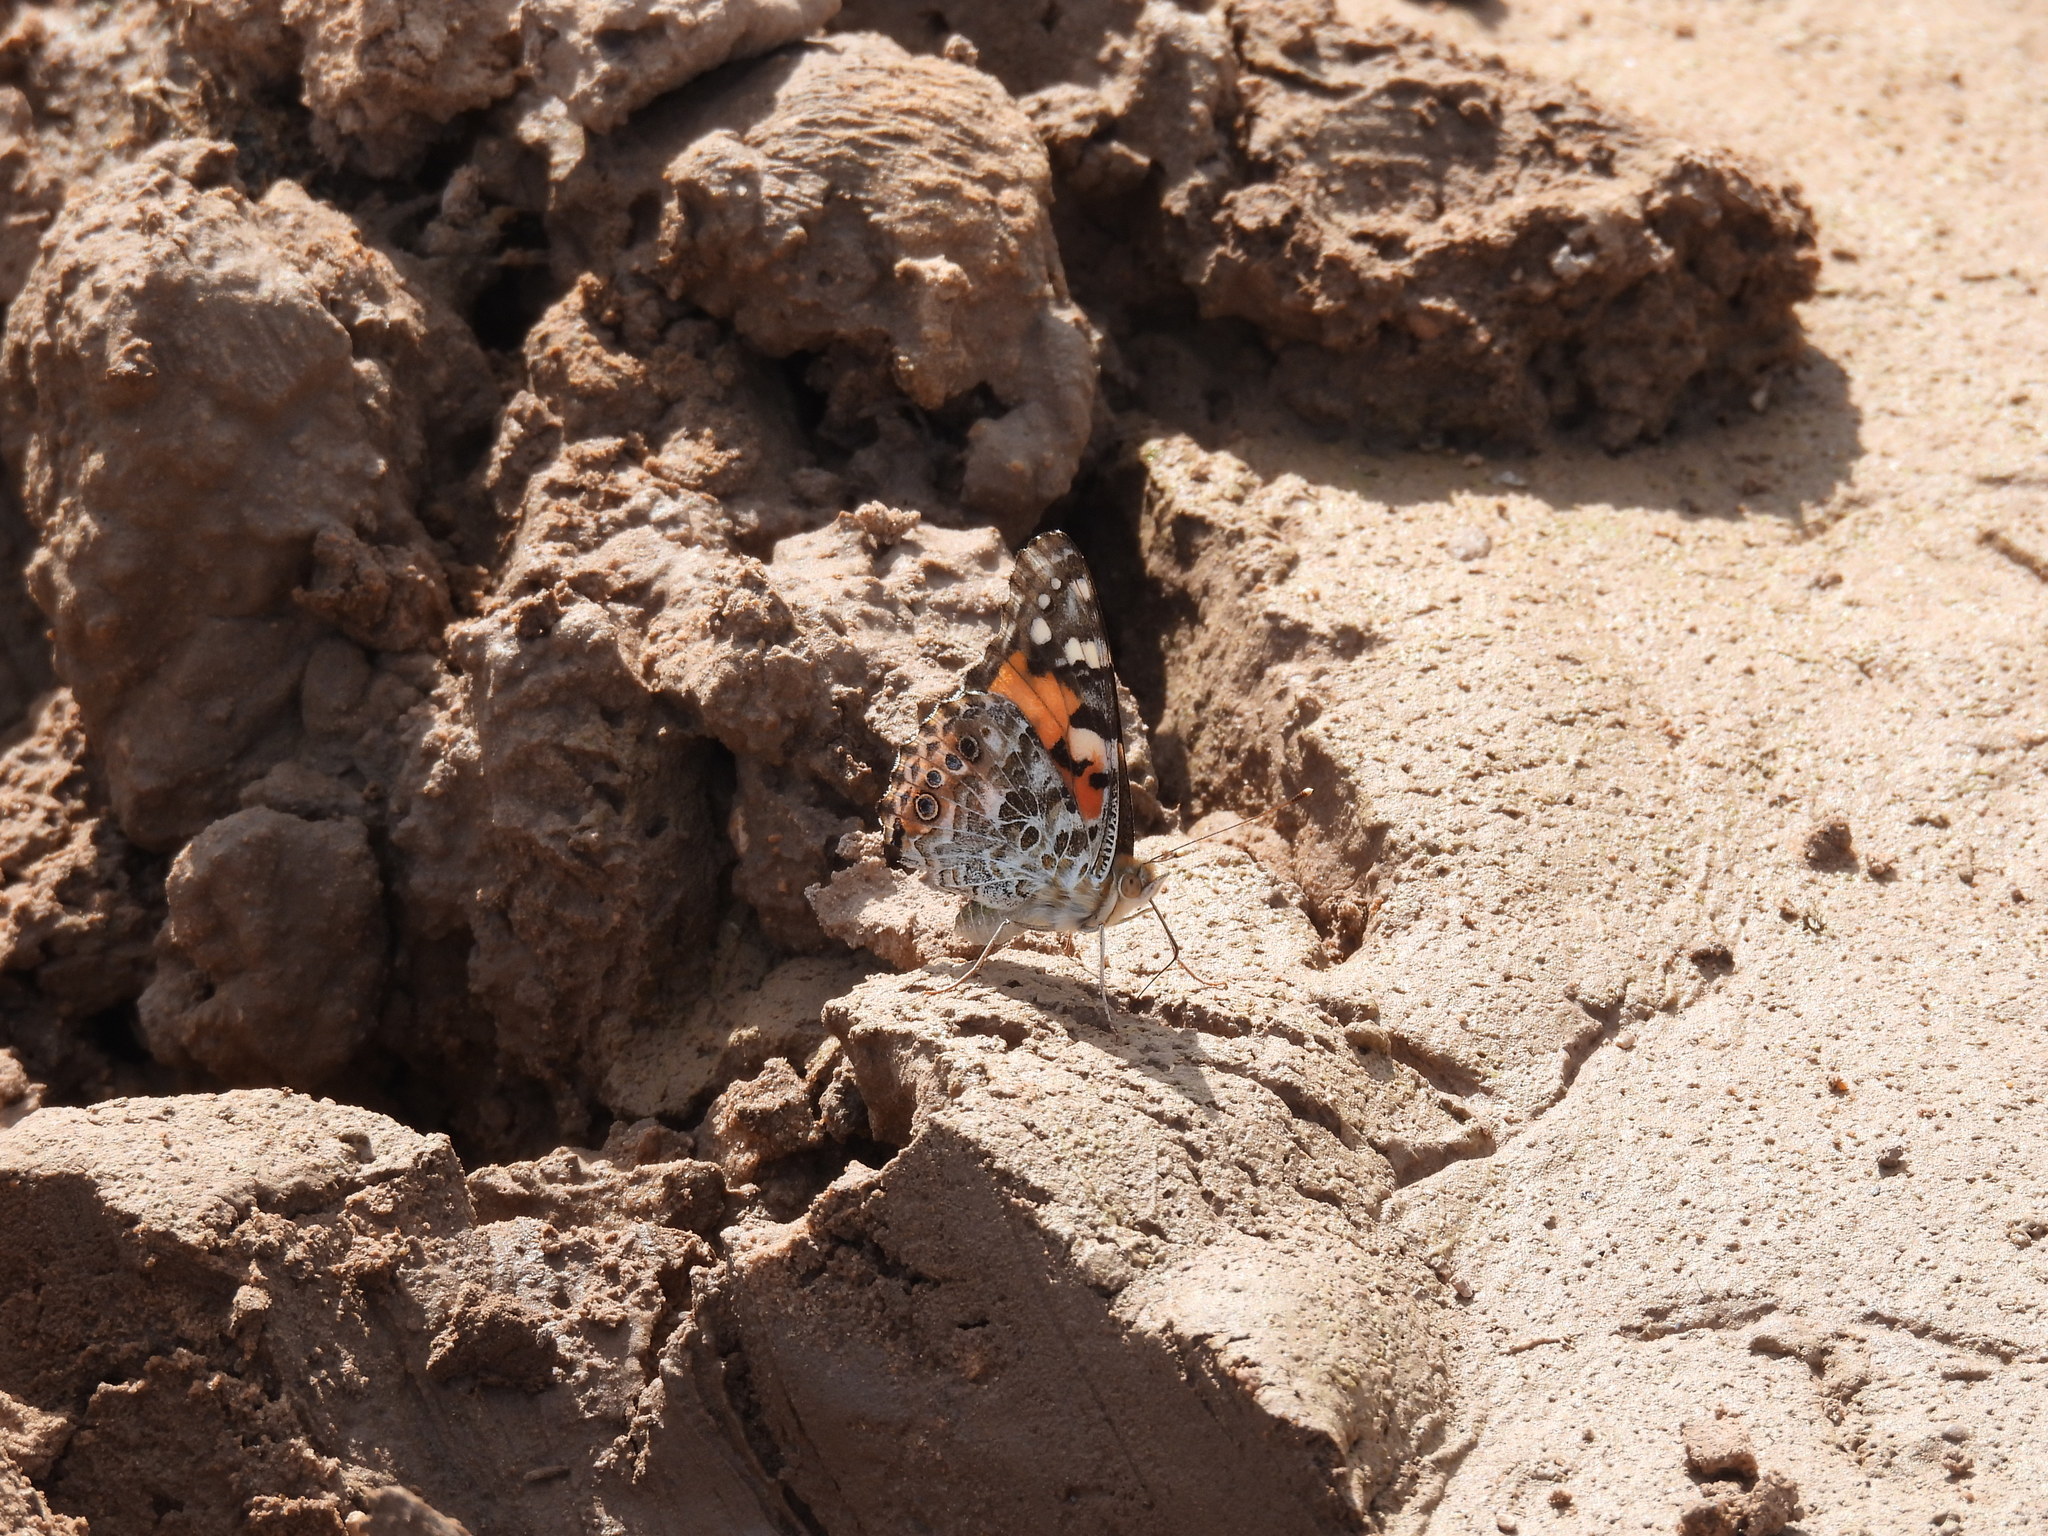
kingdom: Animalia
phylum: Arthropoda
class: Insecta
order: Lepidoptera
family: Nymphalidae
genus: Vanessa
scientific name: Vanessa cardui
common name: Painted lady
